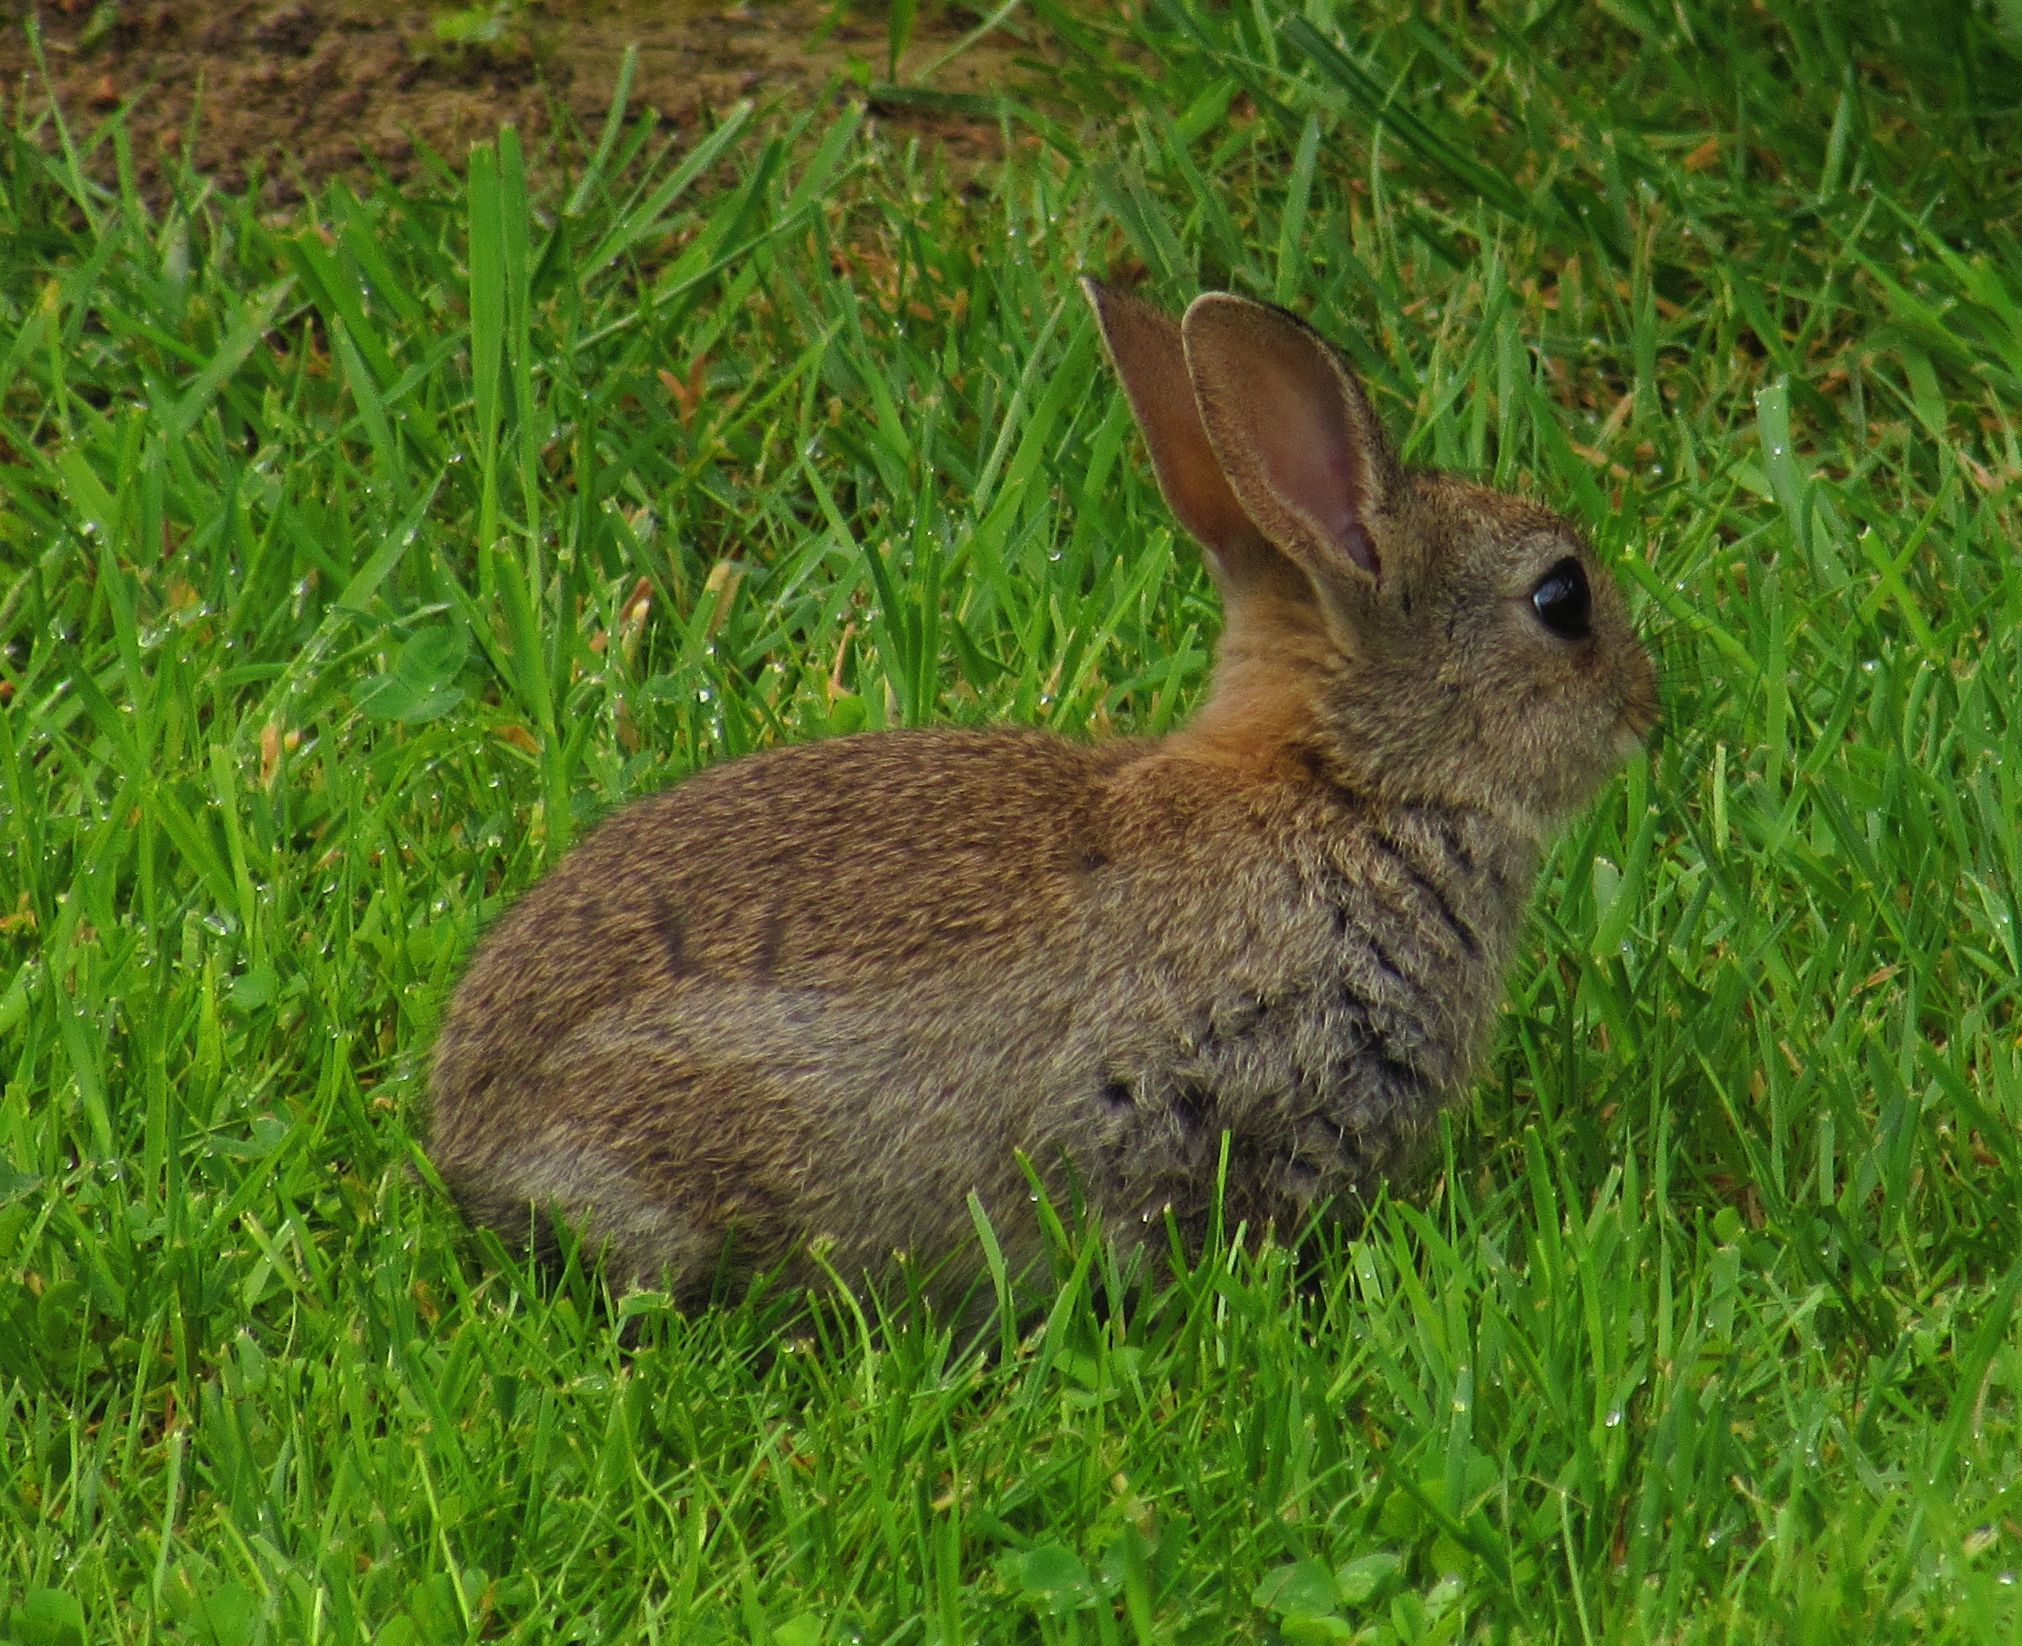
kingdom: Animalia
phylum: Chordata
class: Mammalia
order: Lagomorpha
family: Leporidae
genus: Oryctolagus
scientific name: Oryctolagus cuniculus
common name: European rabbit
